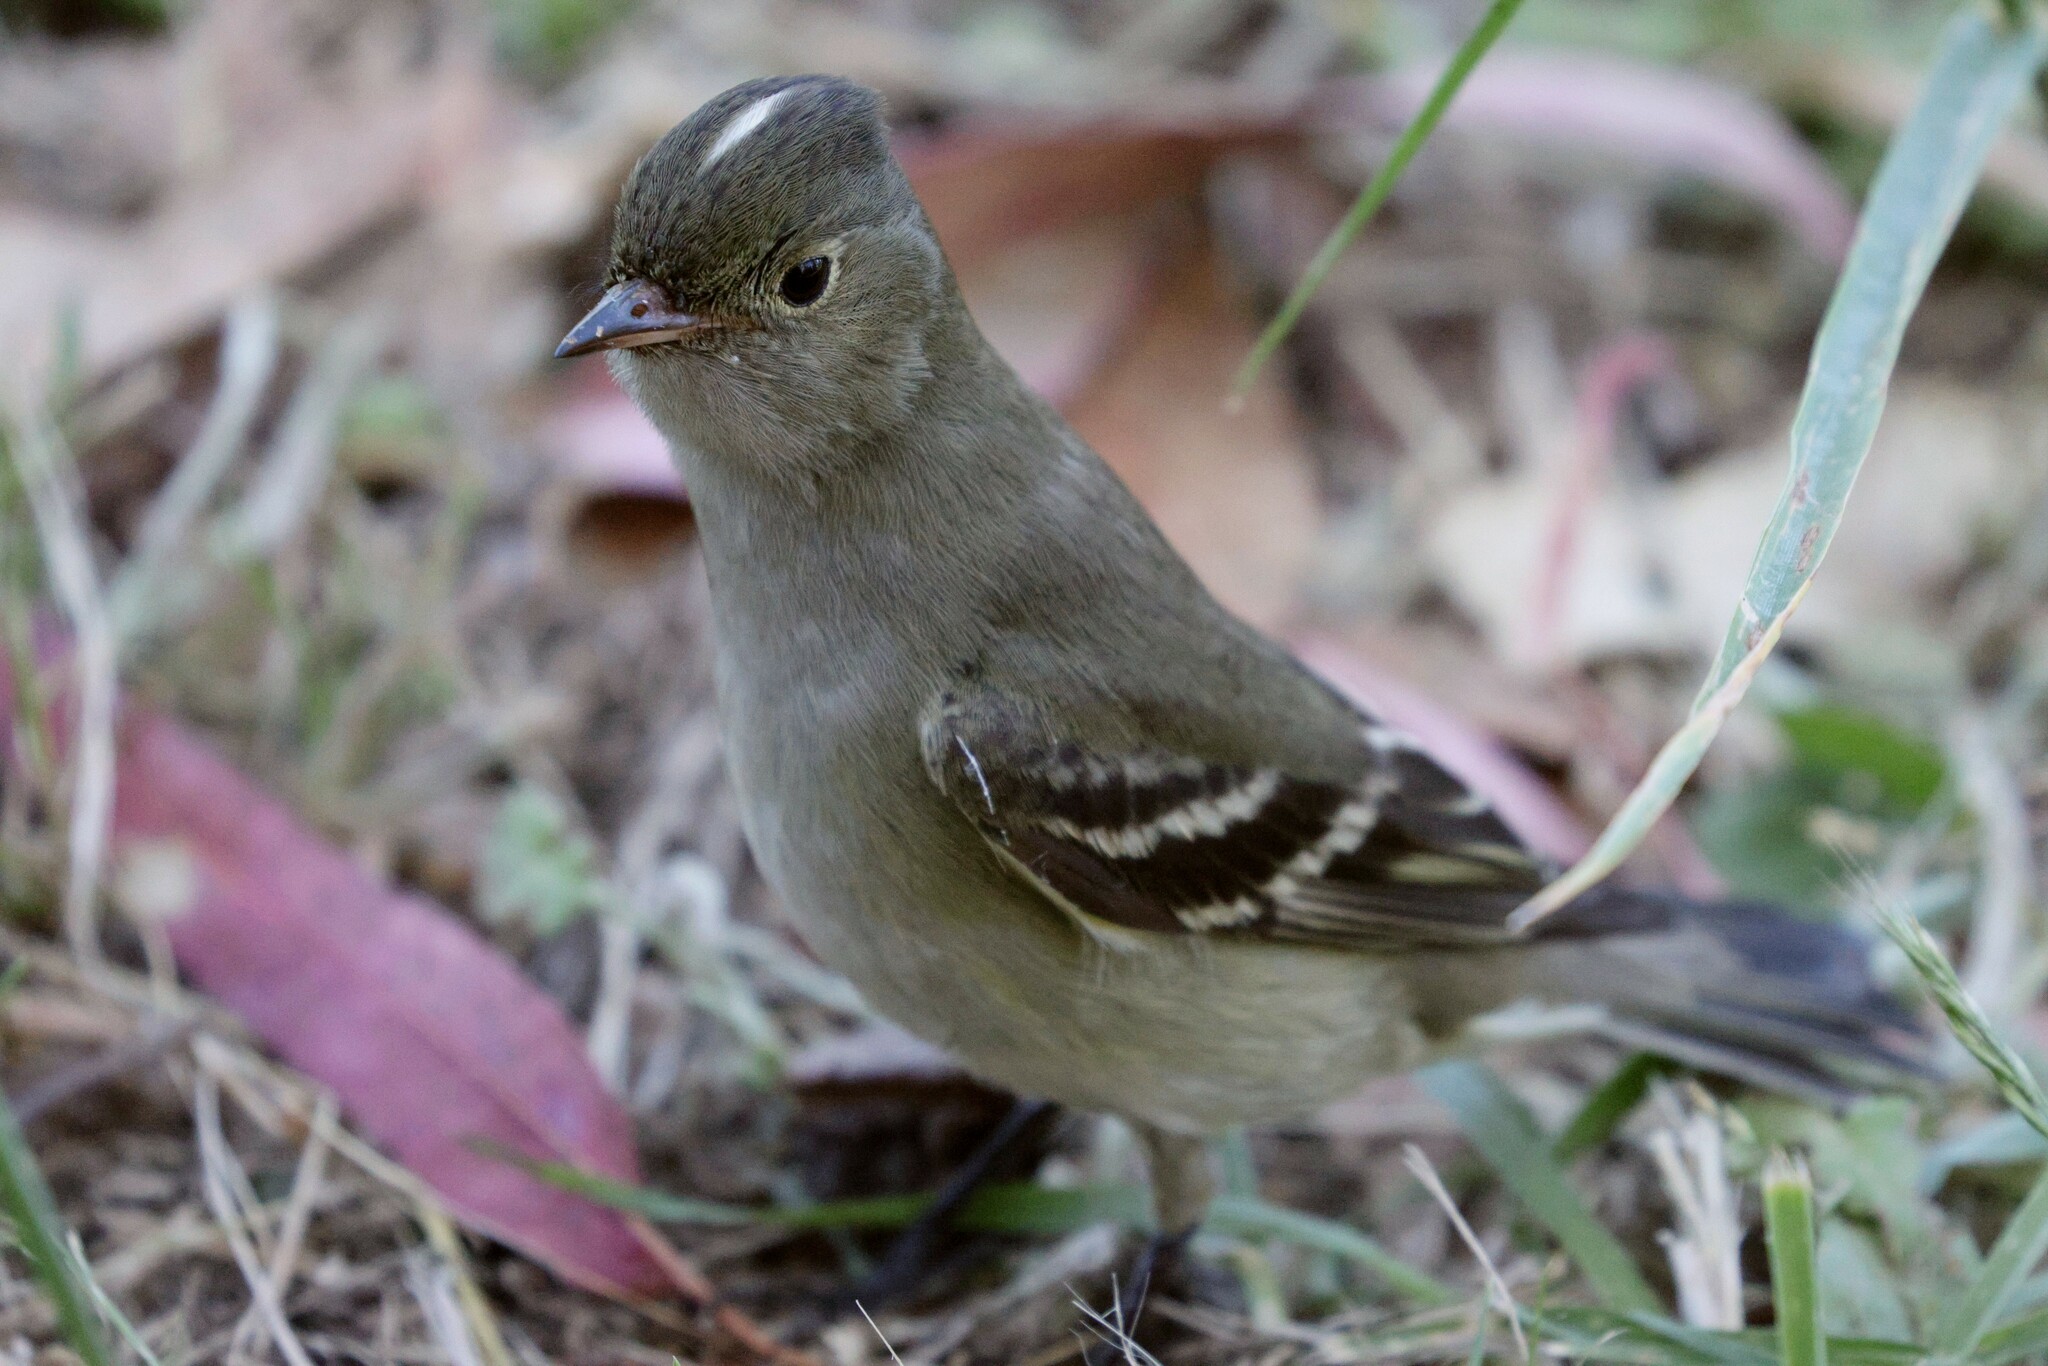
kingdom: Animalia
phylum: Chordata
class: Aves
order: Passeriformes
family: Tyrannidae
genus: Elaenia
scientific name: Elaenia albiceps
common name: White-crested elaenia
